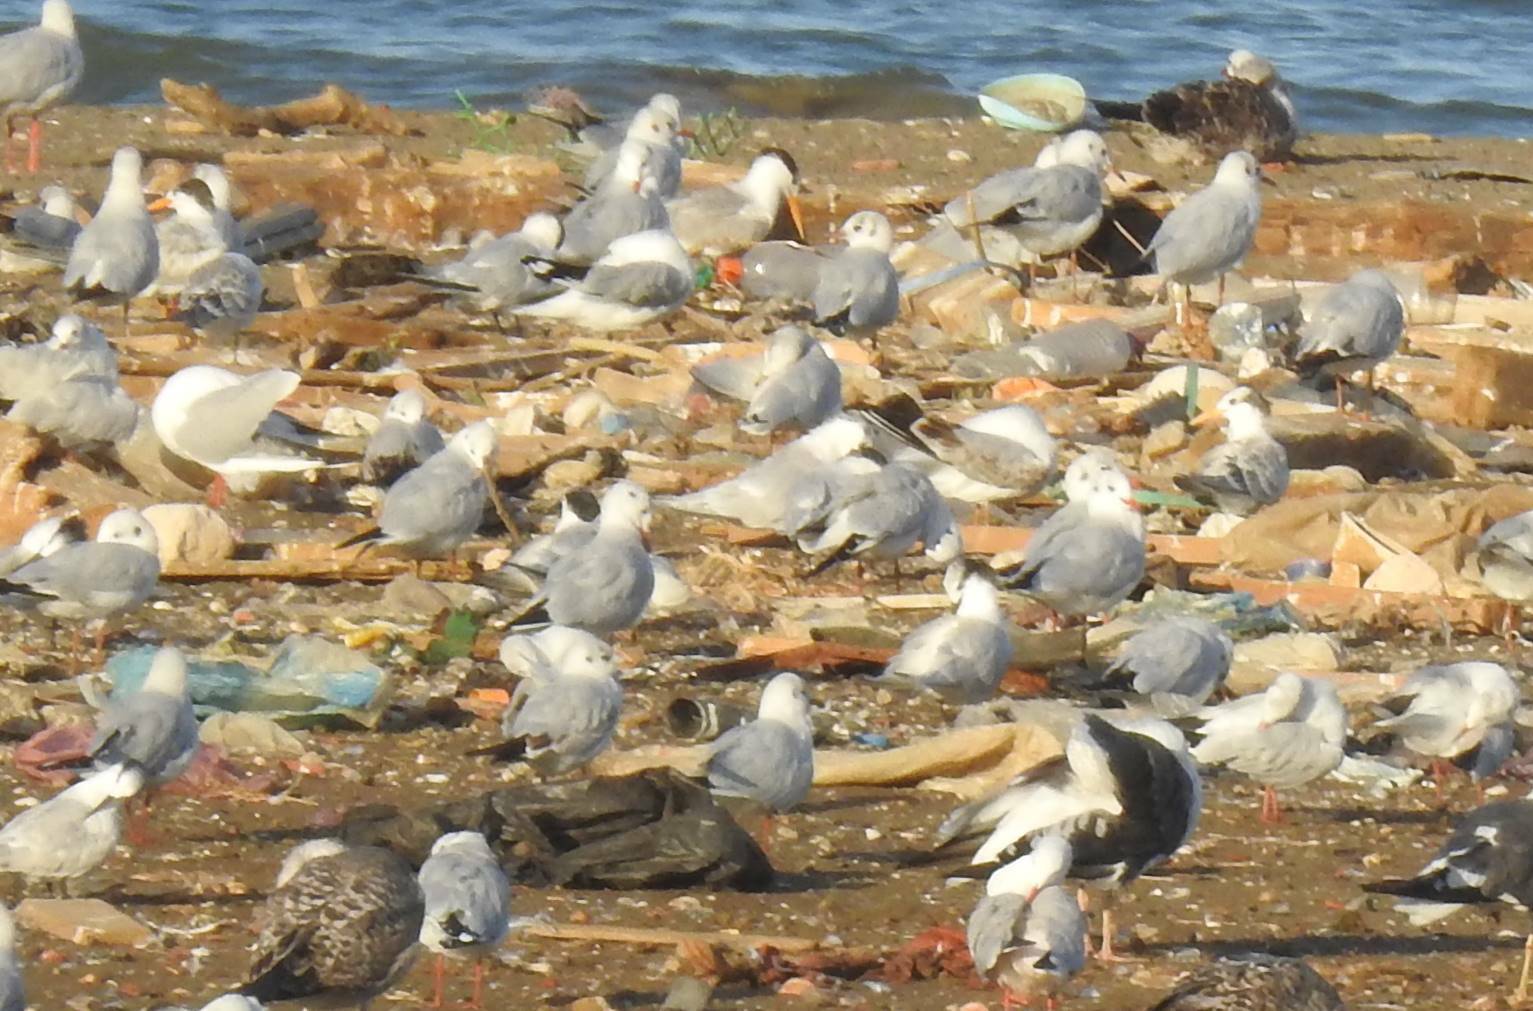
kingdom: Animalia
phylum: Chordata
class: Aves
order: Charadriiformes
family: Laridae
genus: Chroicocephalus
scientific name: Chroicocephalus ridibundus
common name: Black-headed gull
